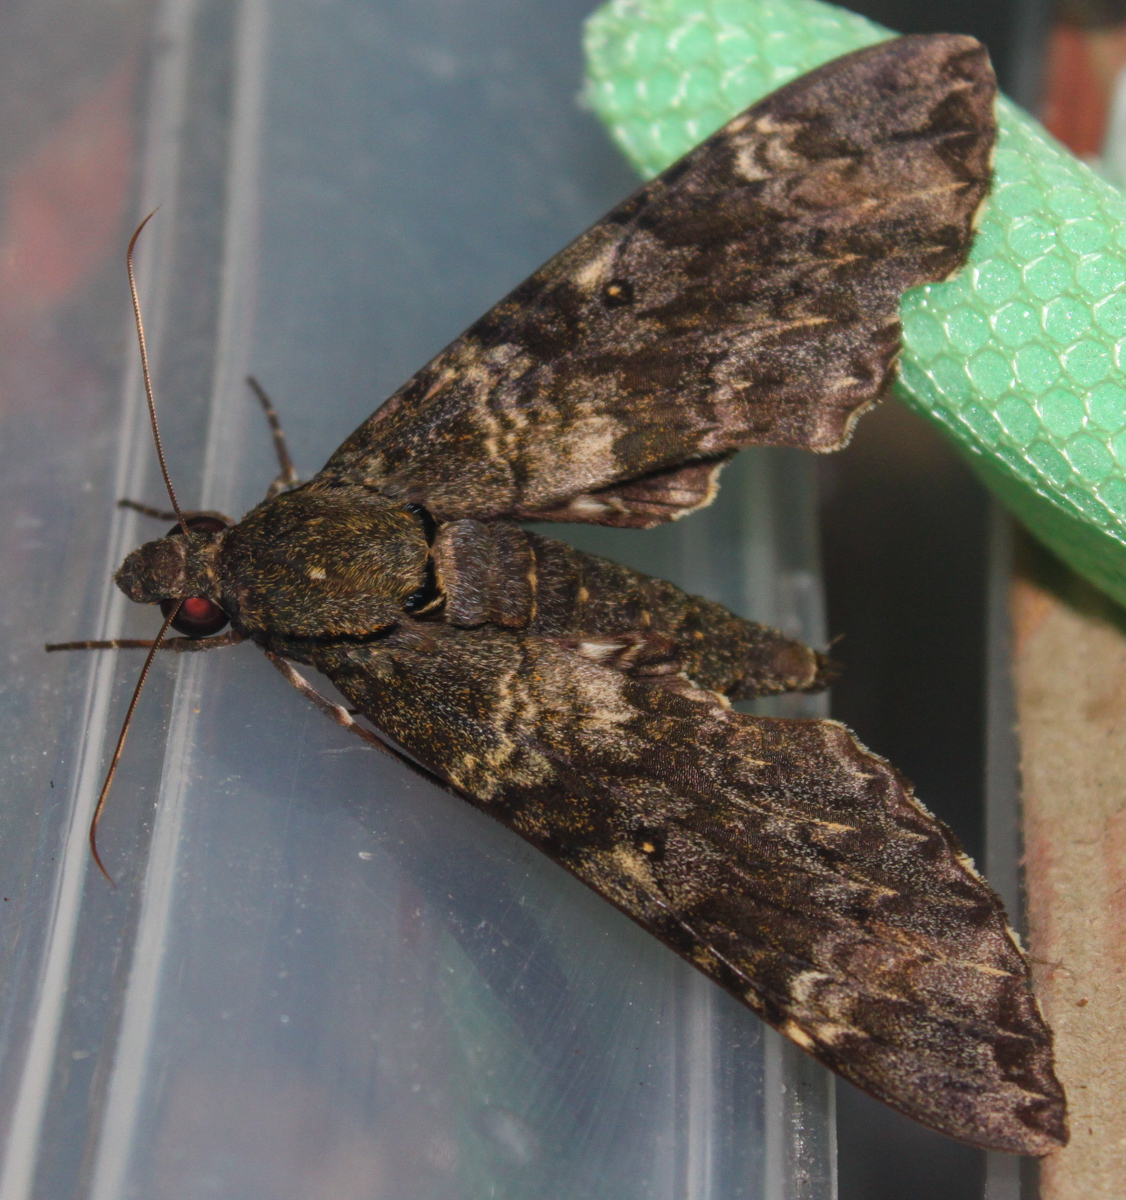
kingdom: Animalia
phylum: Arthropoda
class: Insecta
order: Lepidoptera
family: Sphingidae
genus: Meganoton
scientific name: Meganoton nyctiphanes
